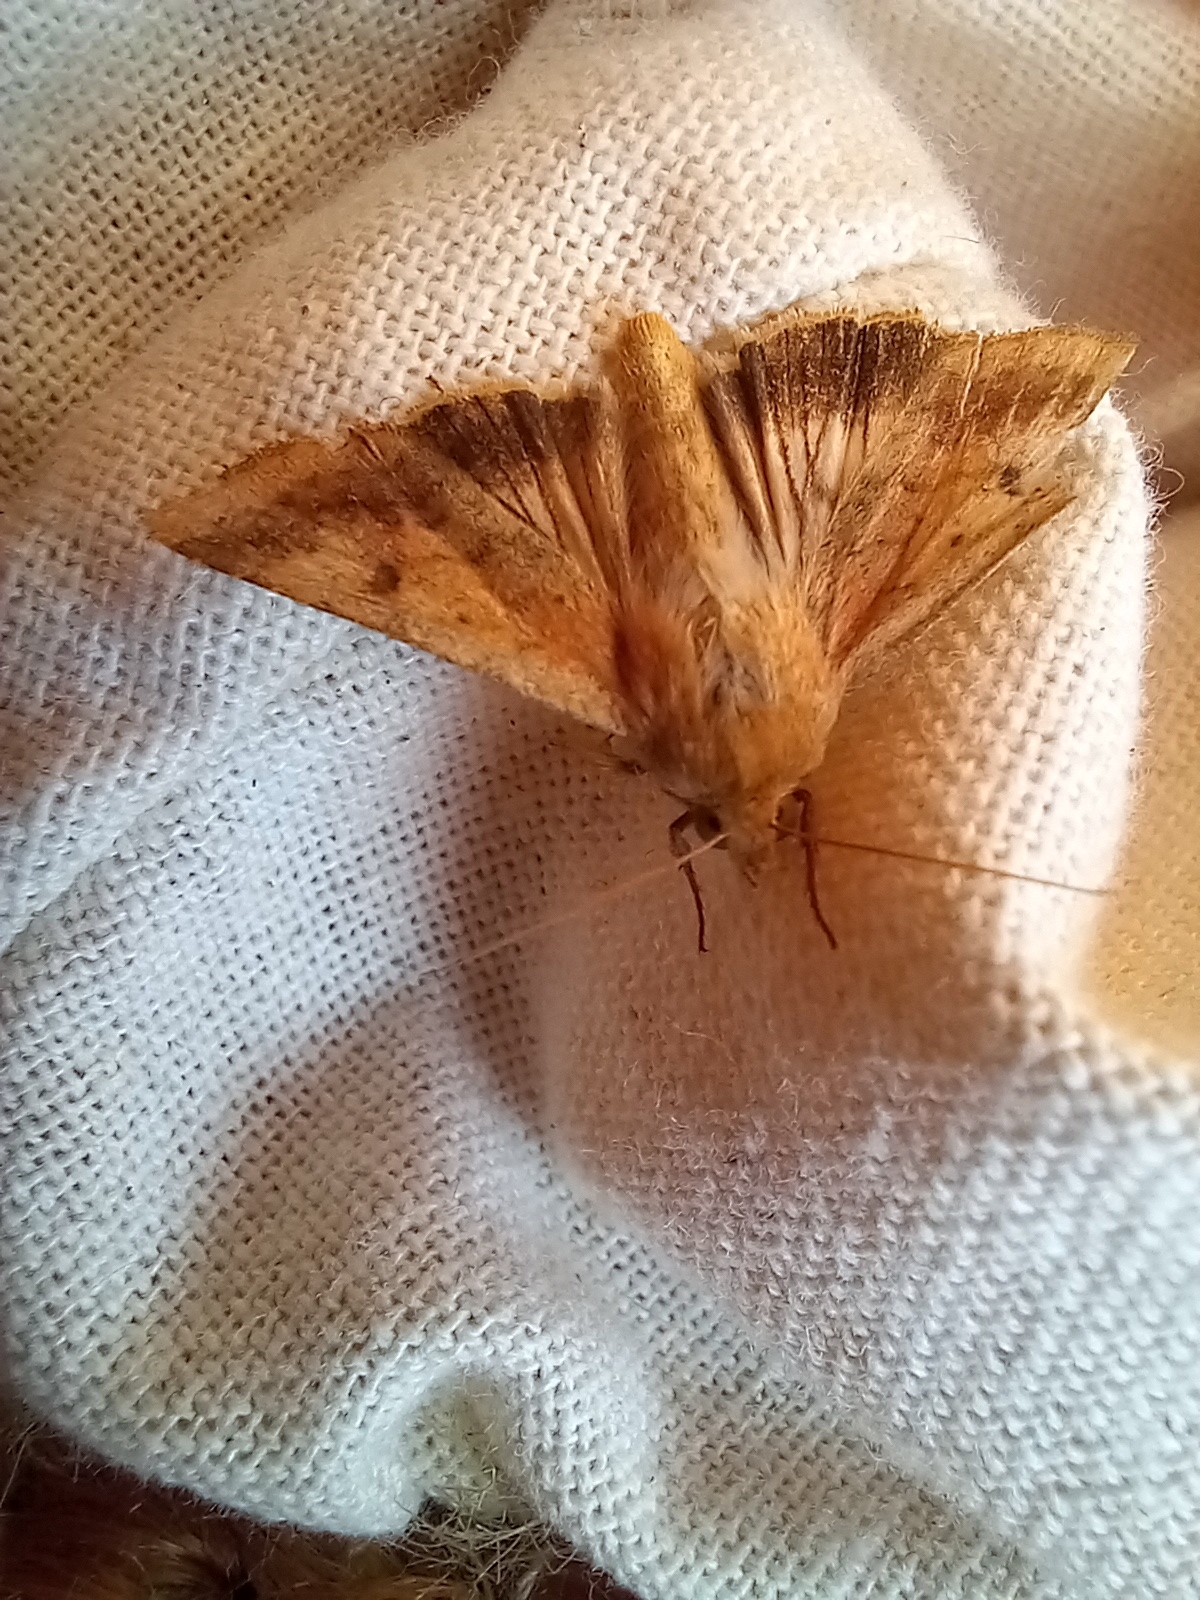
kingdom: Animalia
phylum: Arthropoda
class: Insecta
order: Lepidoptera
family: Noctuidae
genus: Helicoverpa
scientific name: Helicoverpa armigera
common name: Cotton bollworm
